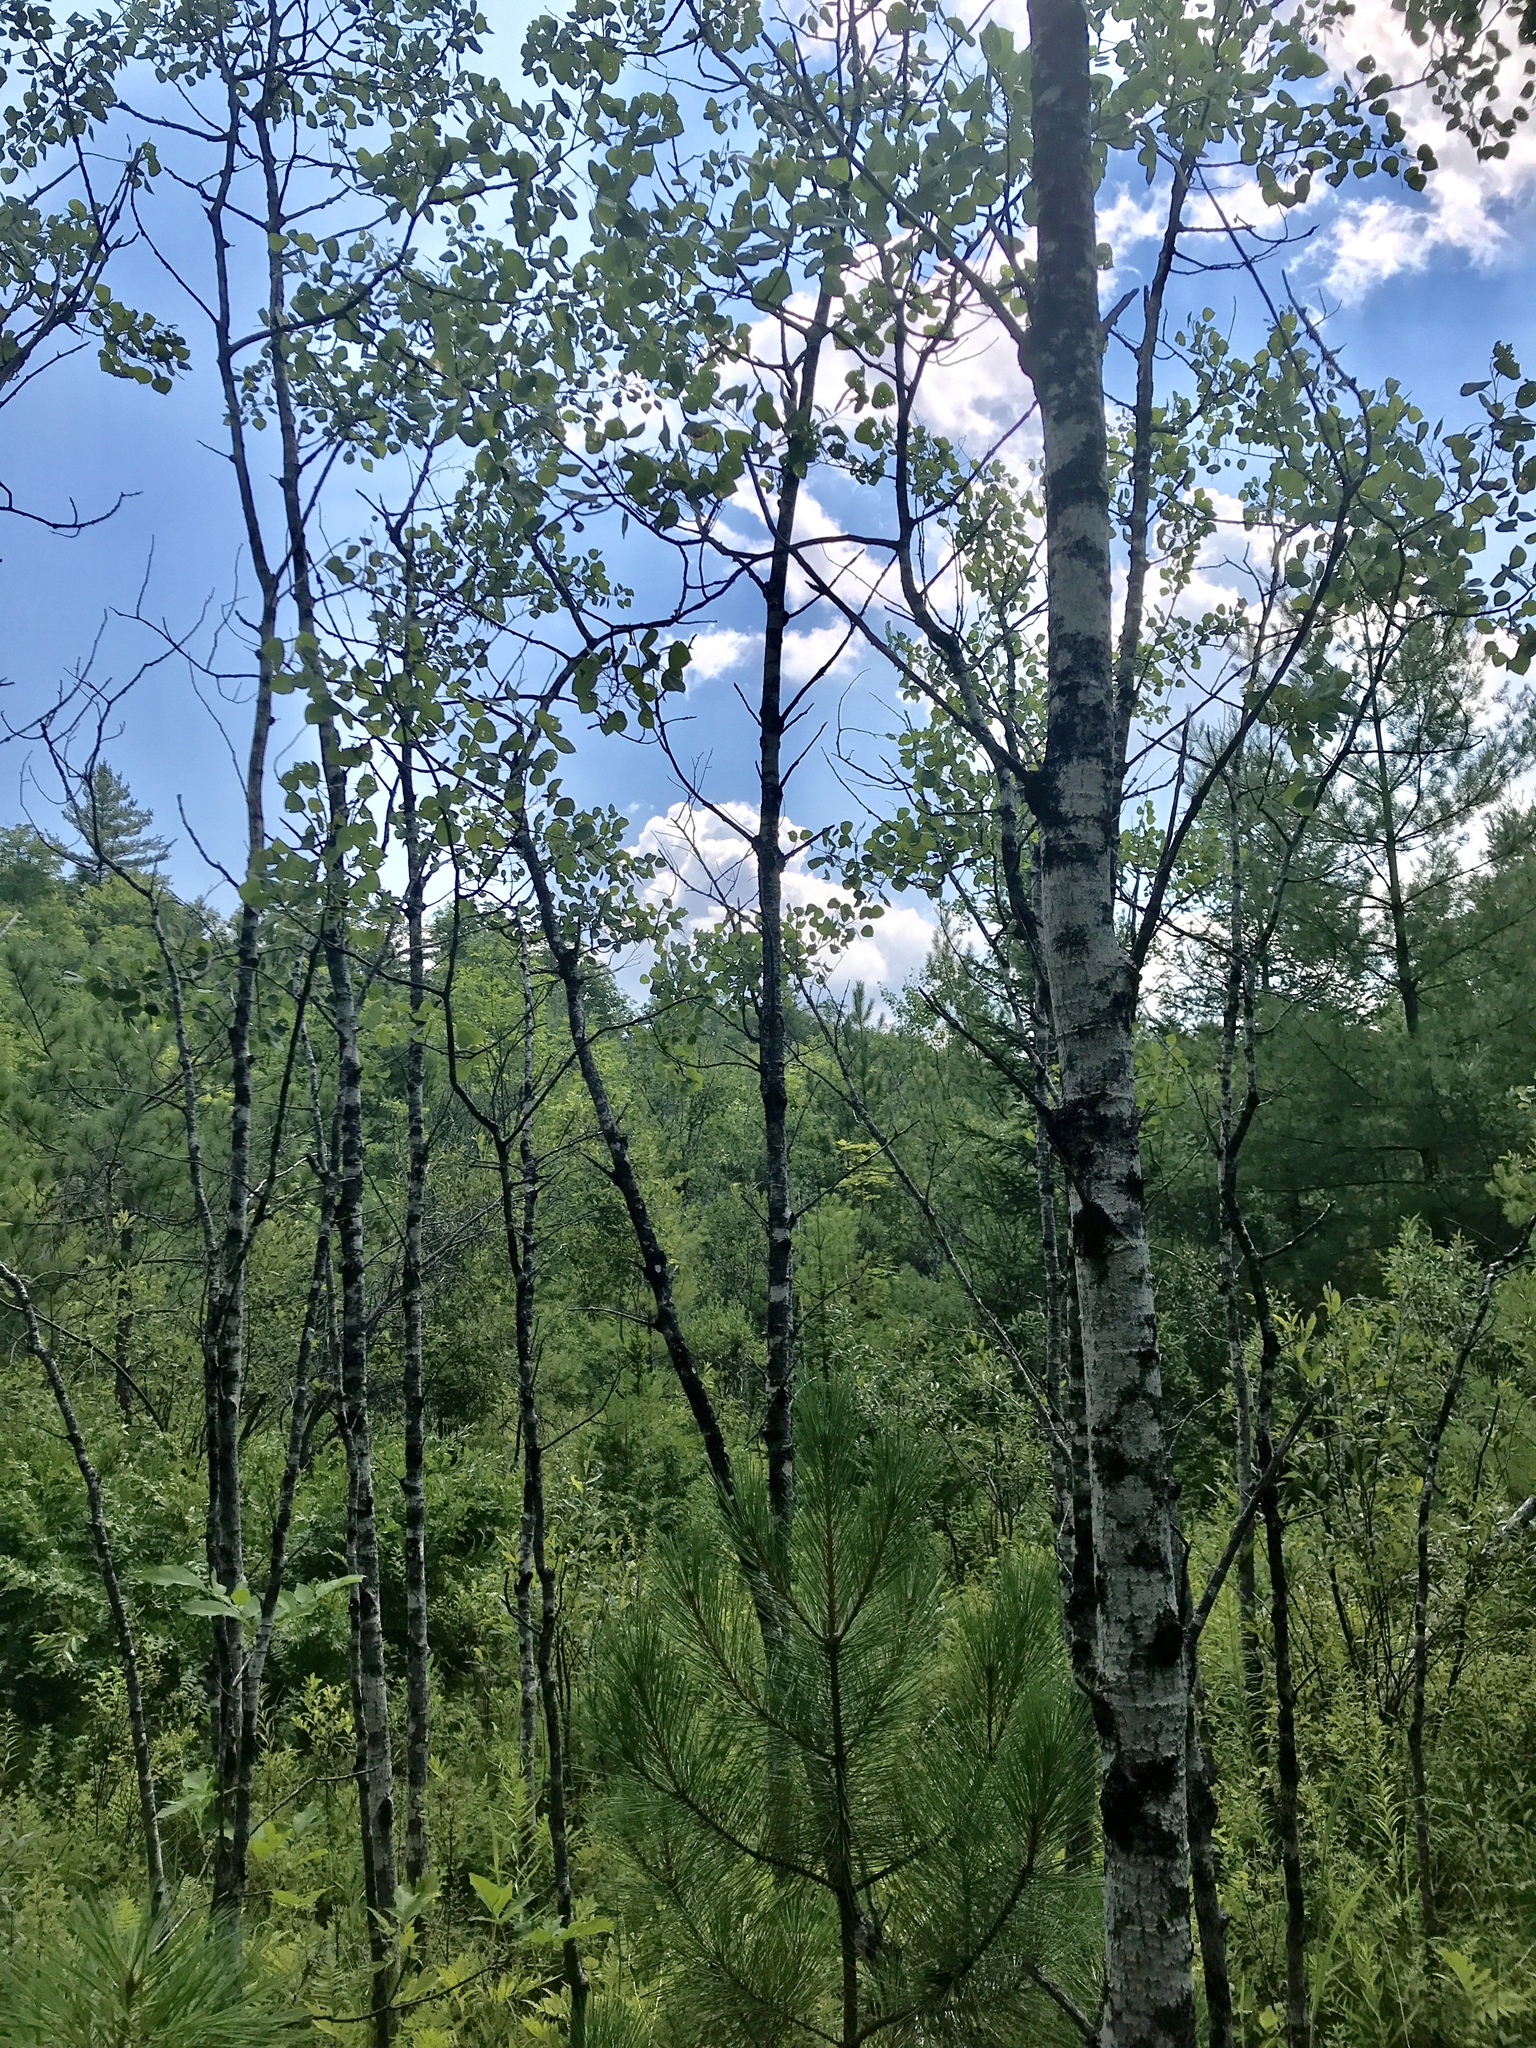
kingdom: Plantae
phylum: Tracheophyta
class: Magnoliopsida
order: Malpighiales
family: Salicaceae
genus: Populus
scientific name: Populus tremuloides
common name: Quaking aspen
